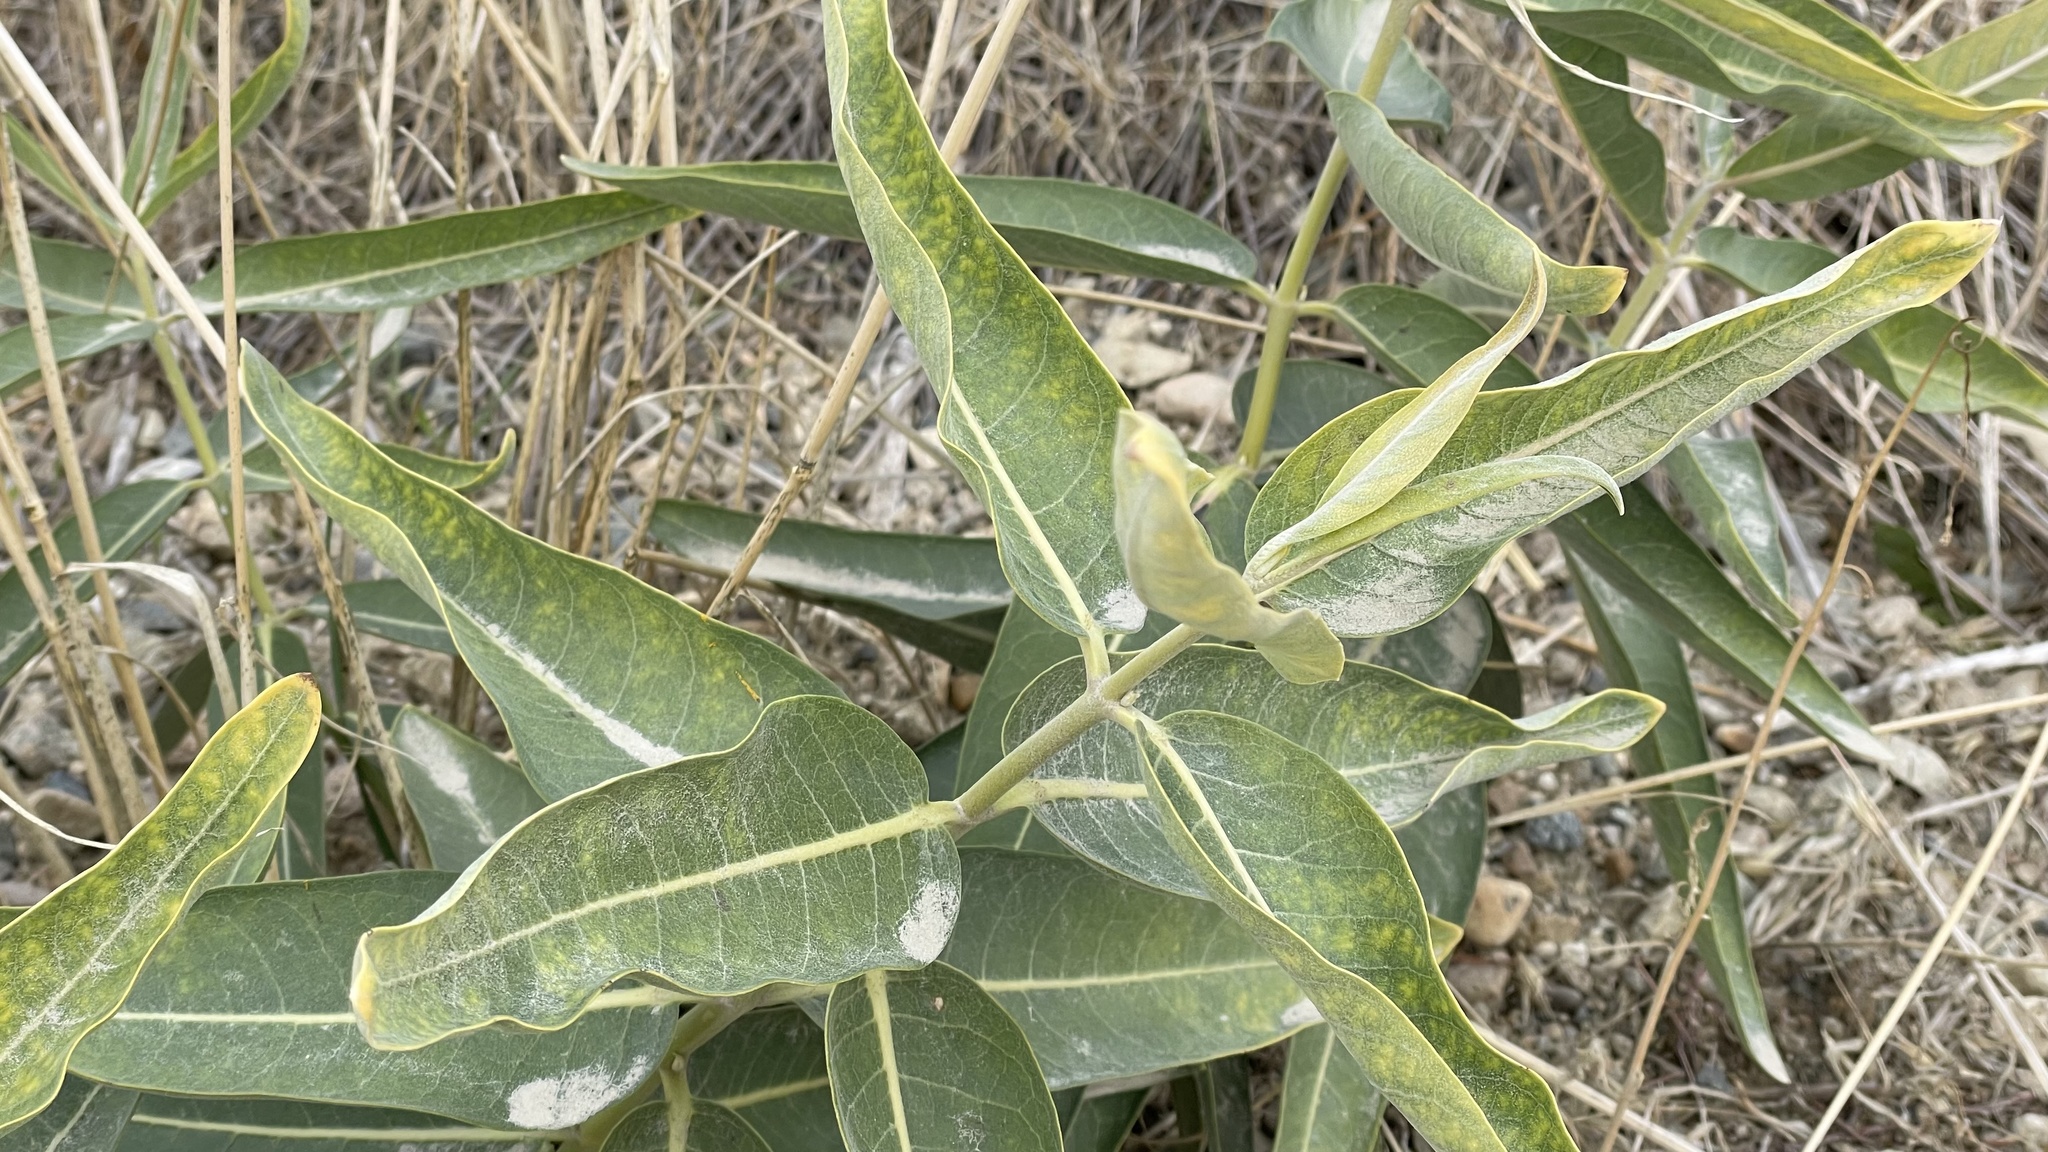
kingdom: Plantae
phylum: Tracheophyta
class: Magnoliopsida
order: Gentianales
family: Apocynaceae
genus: Asclepias
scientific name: Asclepias speciosa
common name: Showy milkweed
